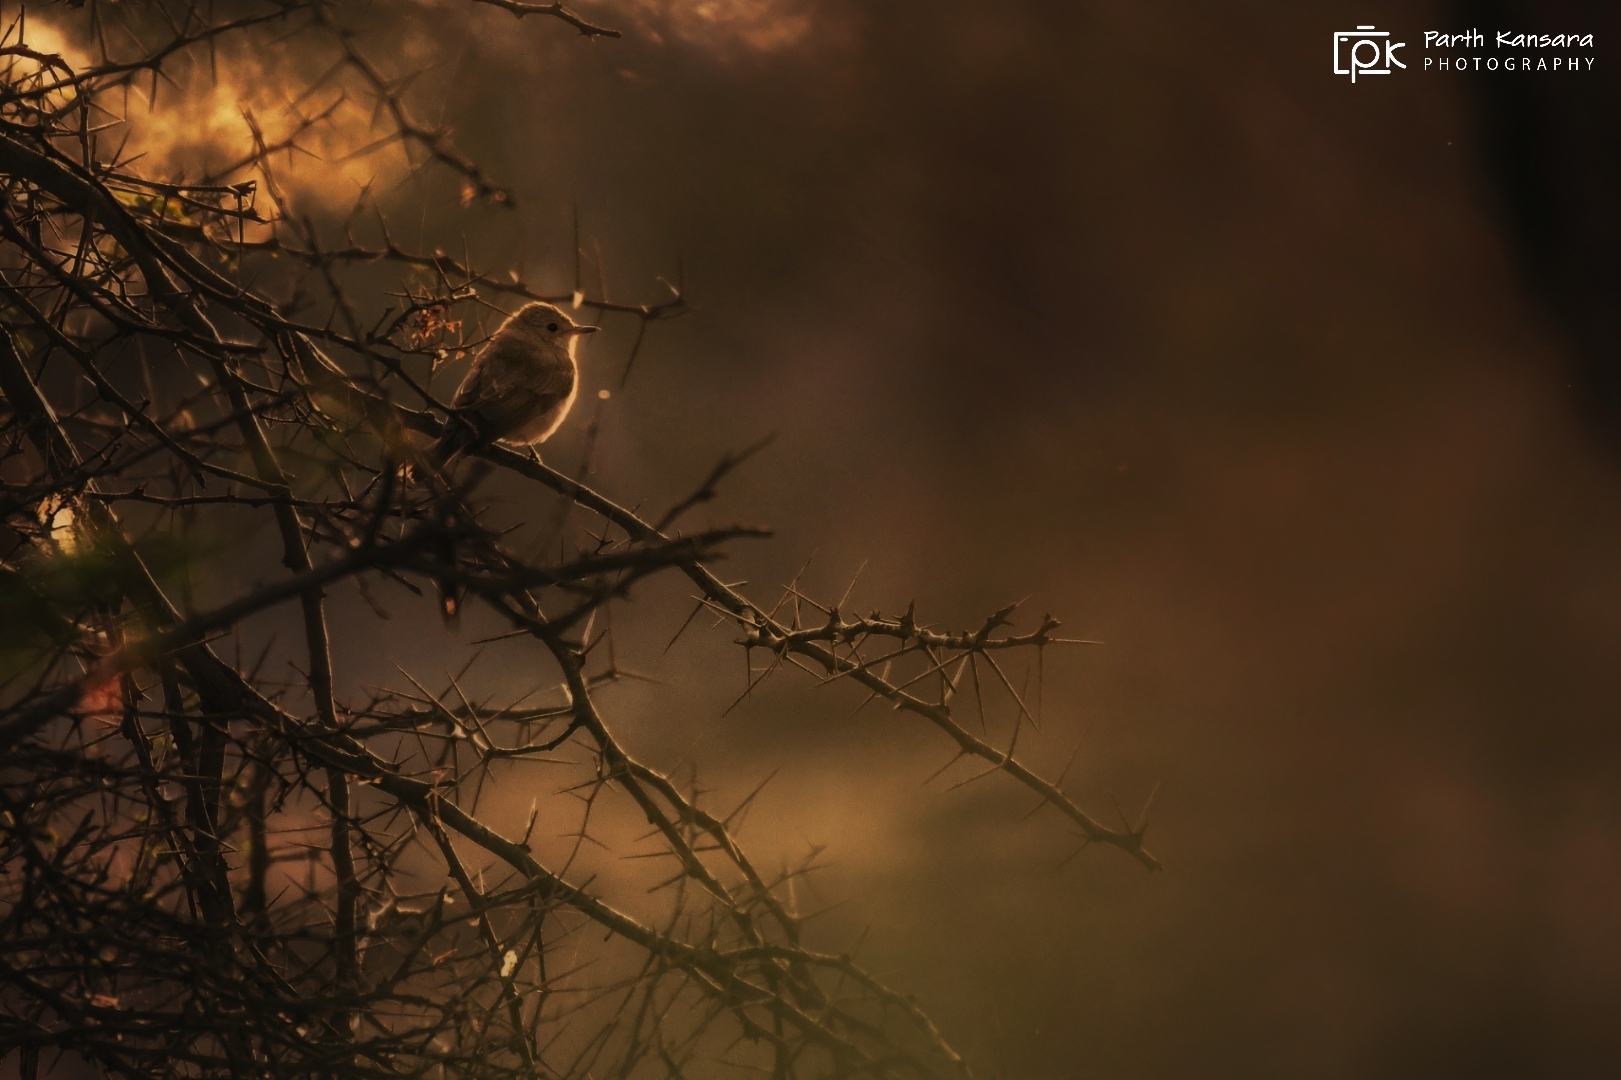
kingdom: Animalia
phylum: Chordata
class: Aves
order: Passeriformes
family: Muscicapidae
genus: Muscicapa
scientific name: Muscicapa striata
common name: Spotted flycatcher
